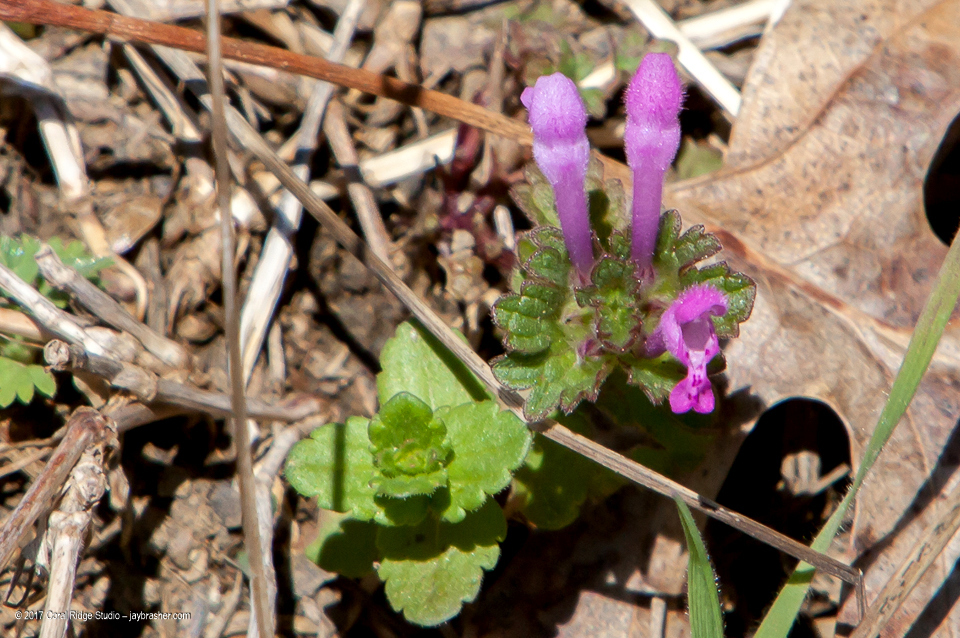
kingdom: Plantae
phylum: Tracheophyta
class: Magnoliopsida
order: Lamiales
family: Lamiaceae
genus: Lamium
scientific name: Lamium amplexicaule
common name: Henbit dead-nettle
